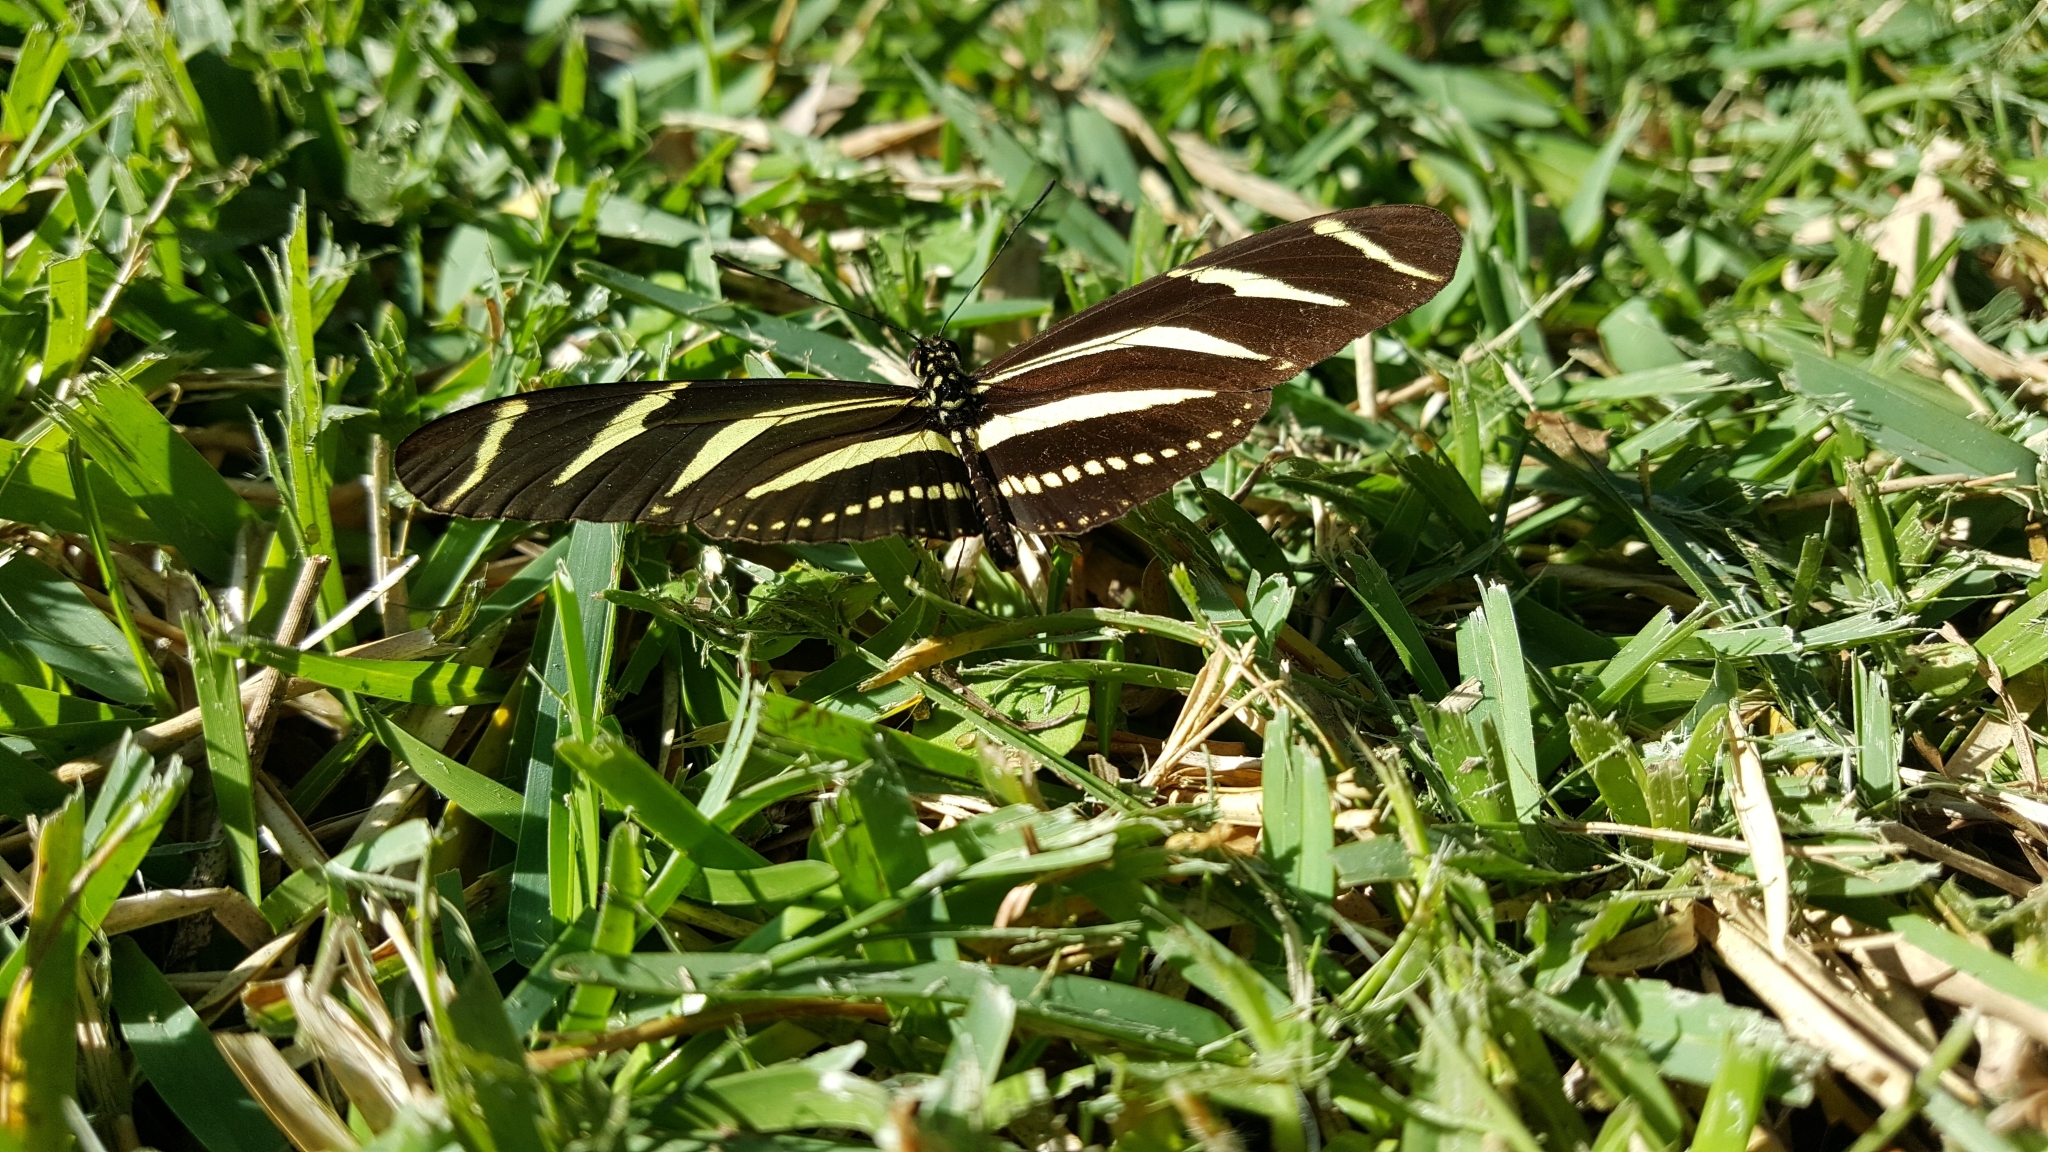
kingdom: Animalia
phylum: Arthropoda
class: Insecta
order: Lepidoptera
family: Nymphalidae
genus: Heliconius
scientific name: Heliconius charithonia
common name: Zebra long wing
